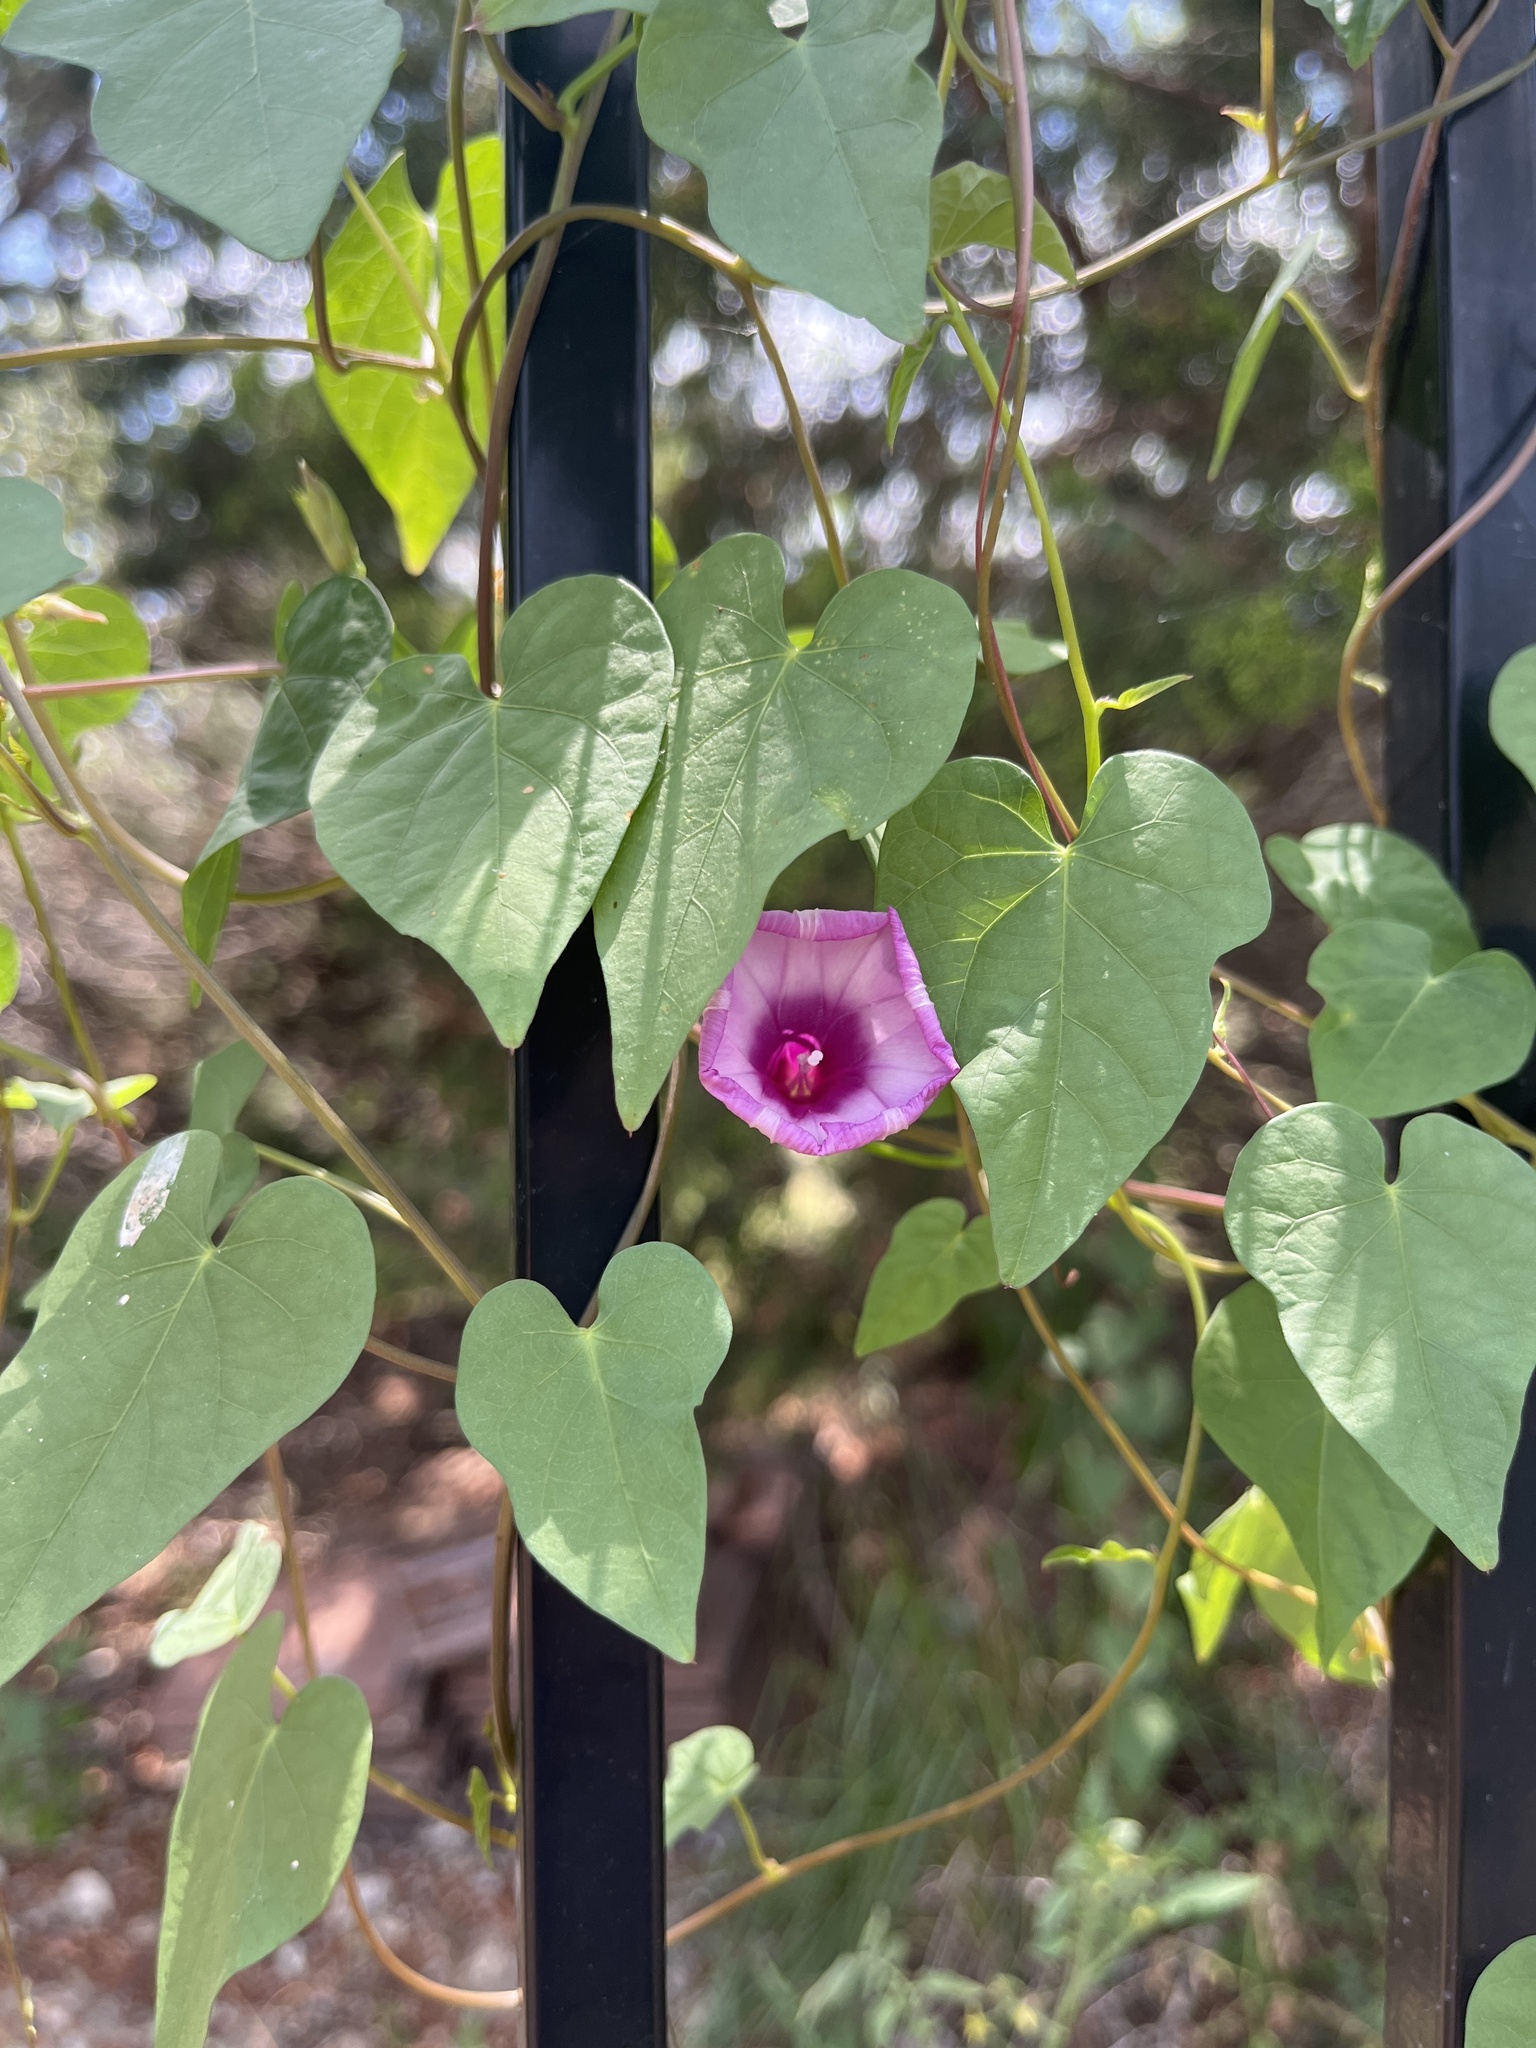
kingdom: Plantae
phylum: Tracheophyta
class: Magnoliopsida
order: Solanales
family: Convolvulaceae
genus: Ipomoea
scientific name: Ipomoea cordatotriloba
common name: Cotton morning glory
